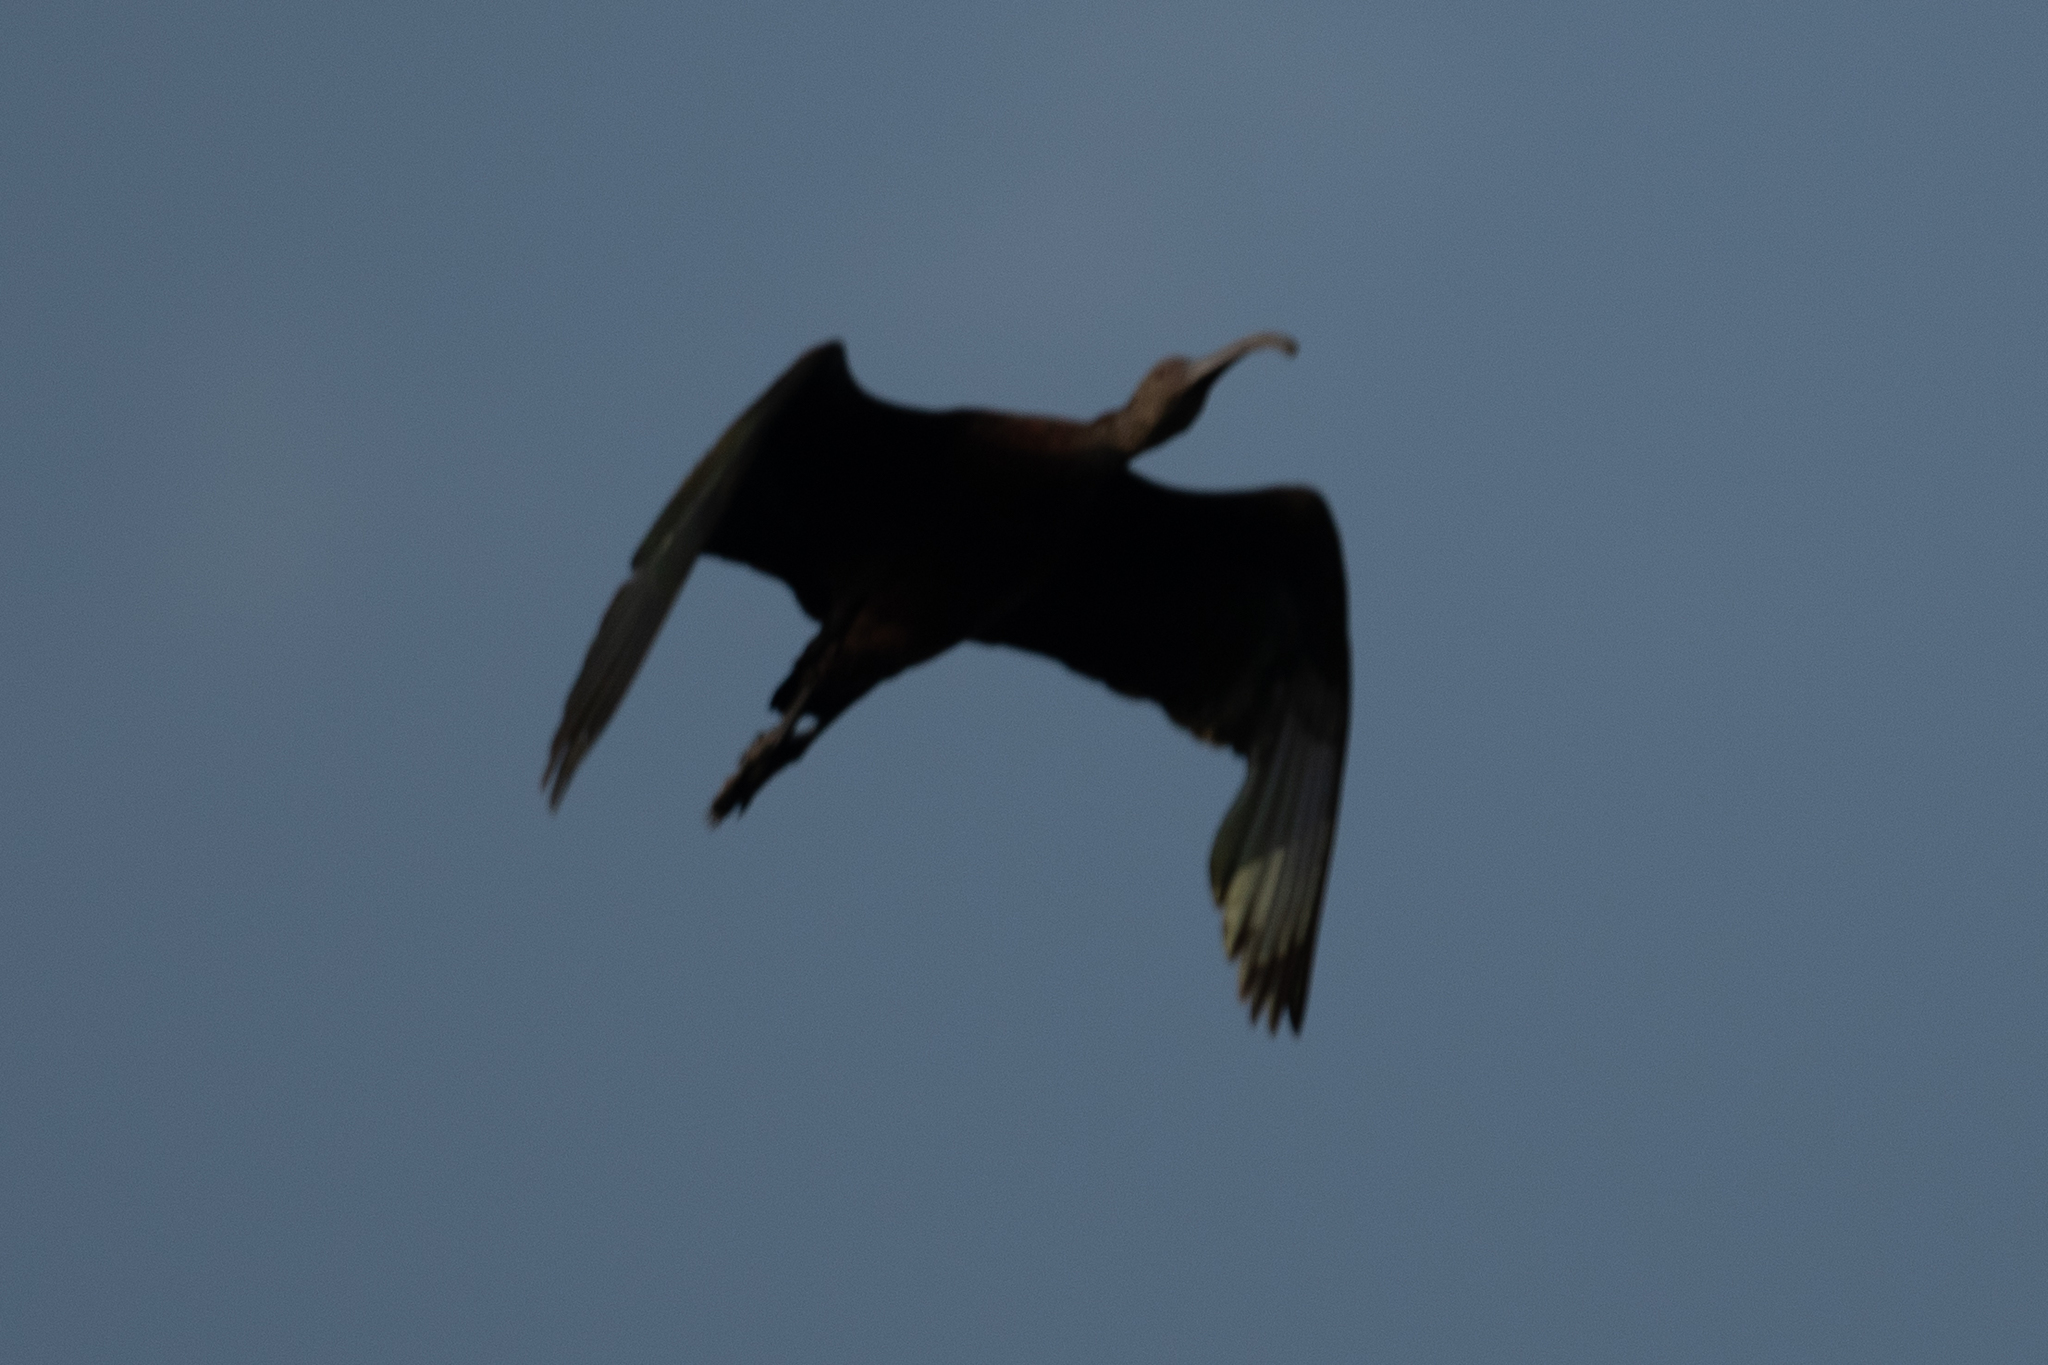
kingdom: Animalia
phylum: Chordata
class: Aves
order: Pelecaniformes
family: Threskiornithidae
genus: Plegadis
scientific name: Plegadis chihi
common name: White-faced ibis
